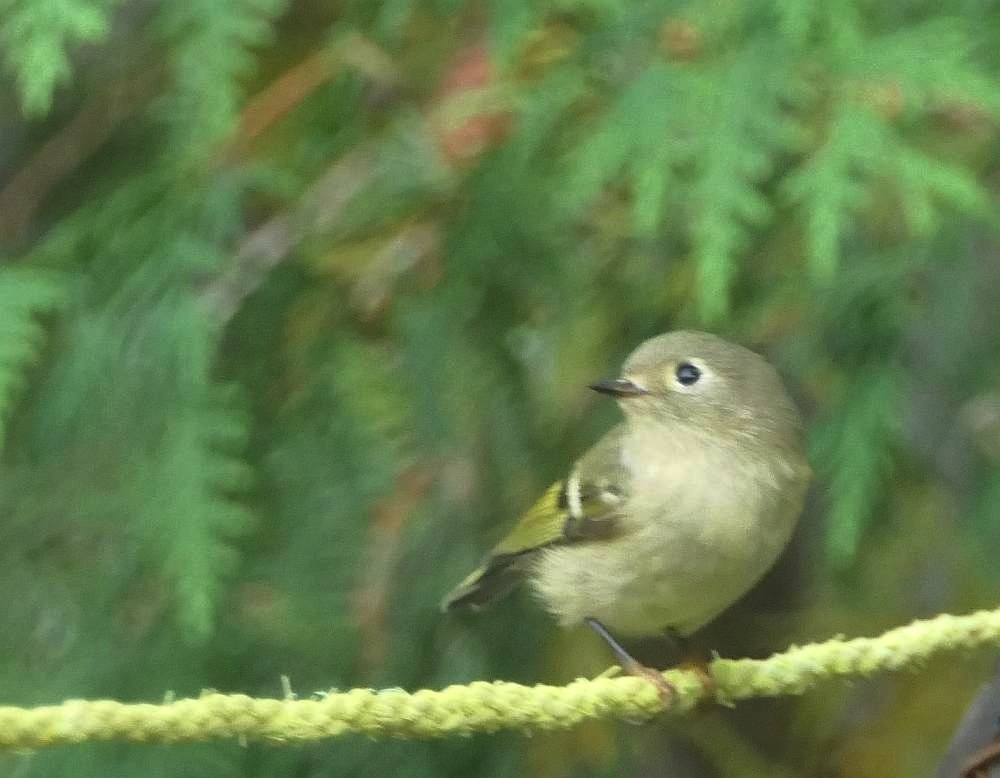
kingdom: Animalia
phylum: Chordata
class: Aves
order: Passeriformes
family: Regulidae
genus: Regulus
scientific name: Regulus calendula
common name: Ruby-crowned kinglet
